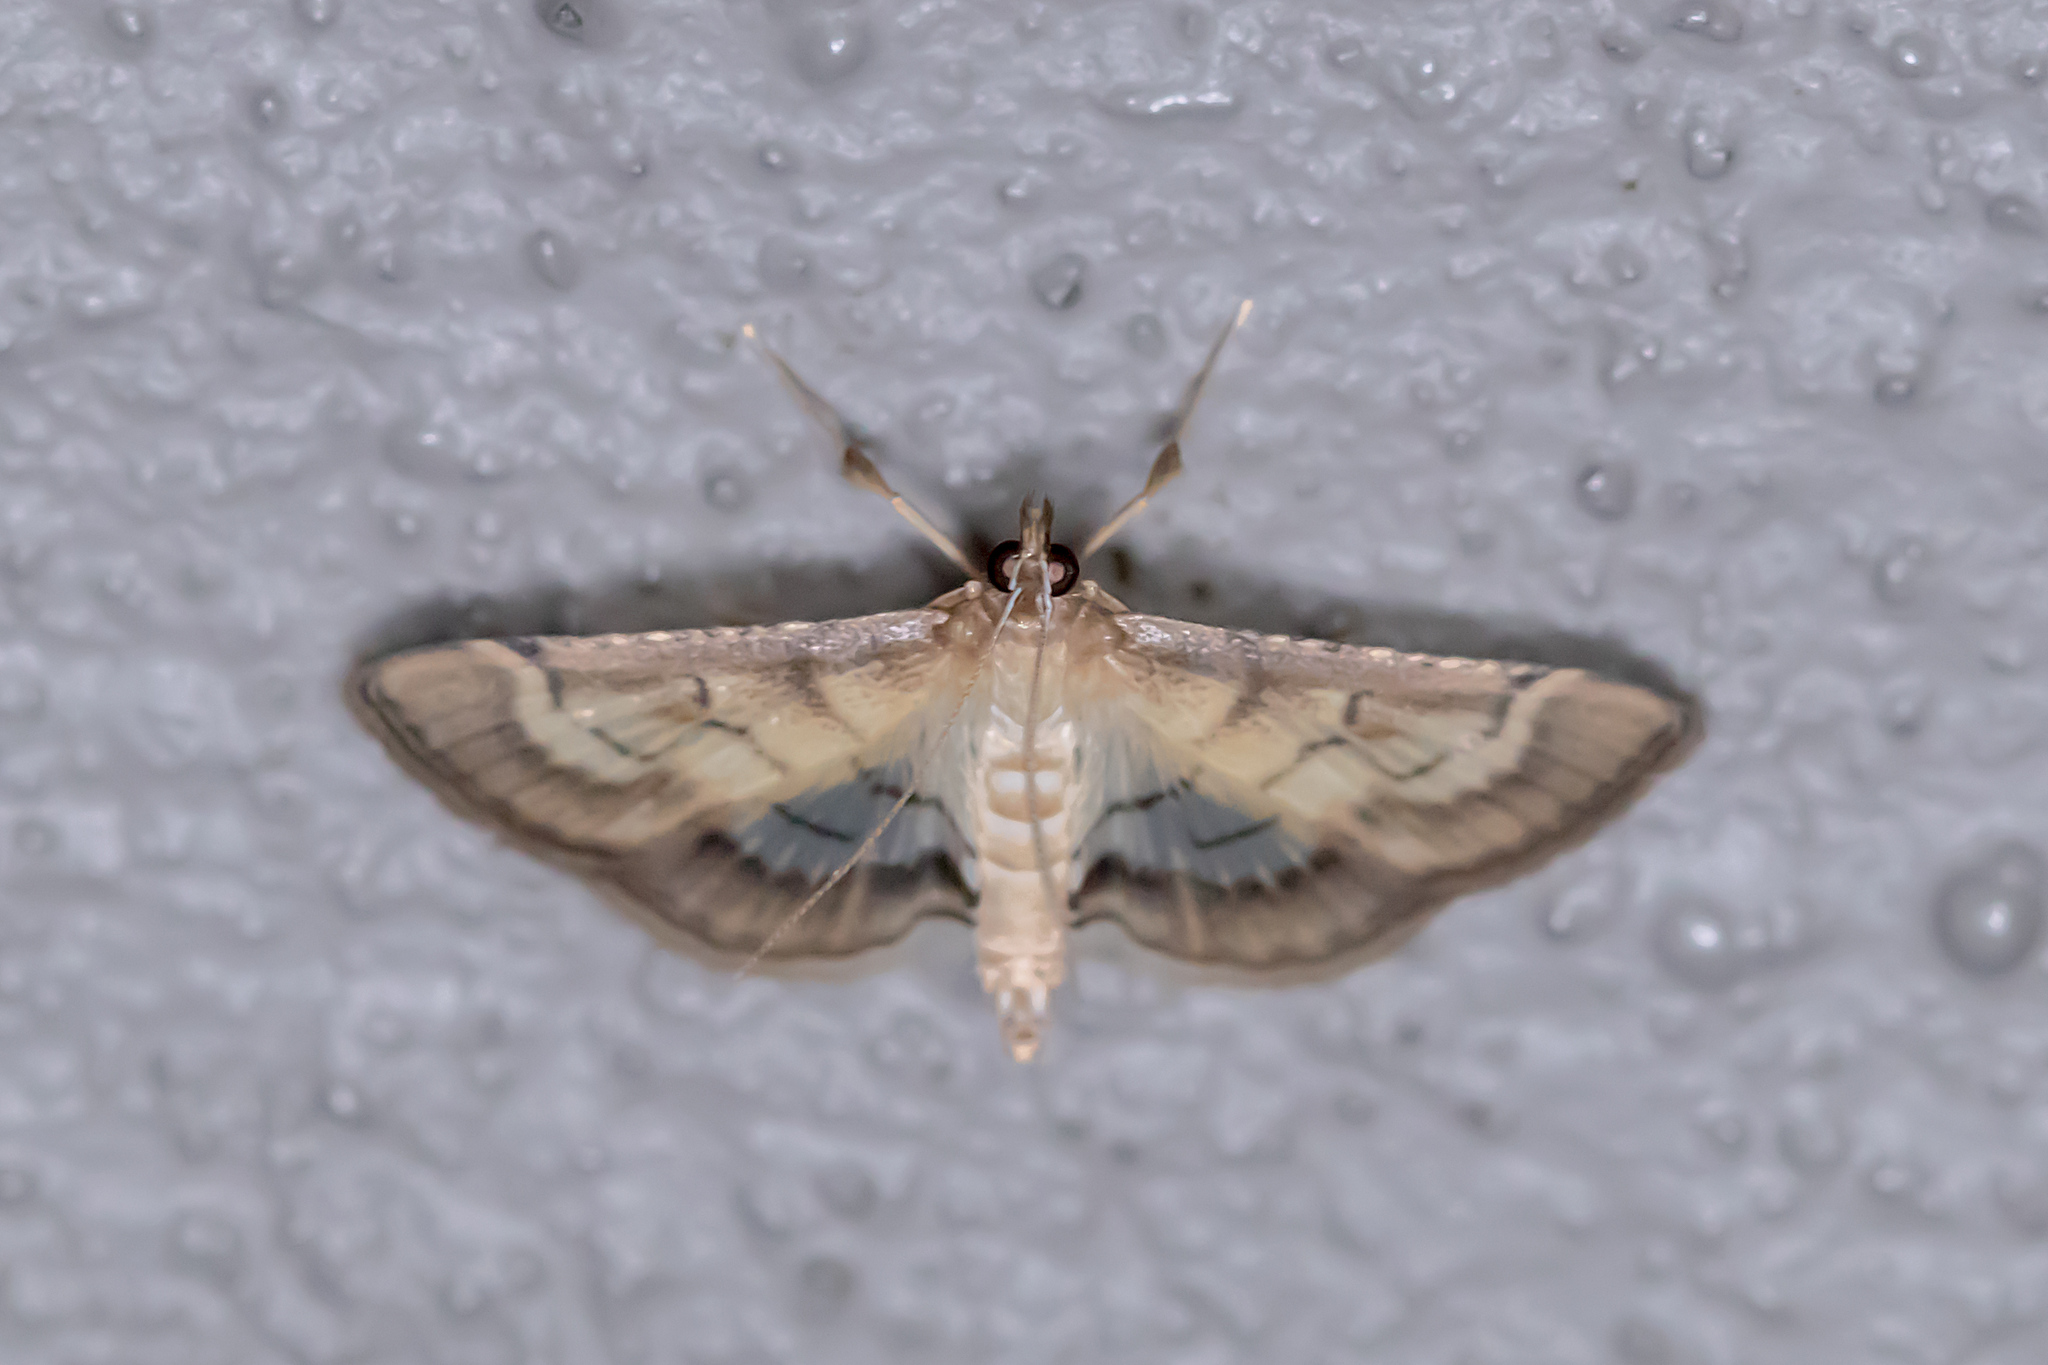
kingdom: Animalia
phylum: Arthropoda
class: Insecta
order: Lepidoptera
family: Crambidae
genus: Cnaphalocrocis
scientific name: Cnaphalocrocis poeyalis
